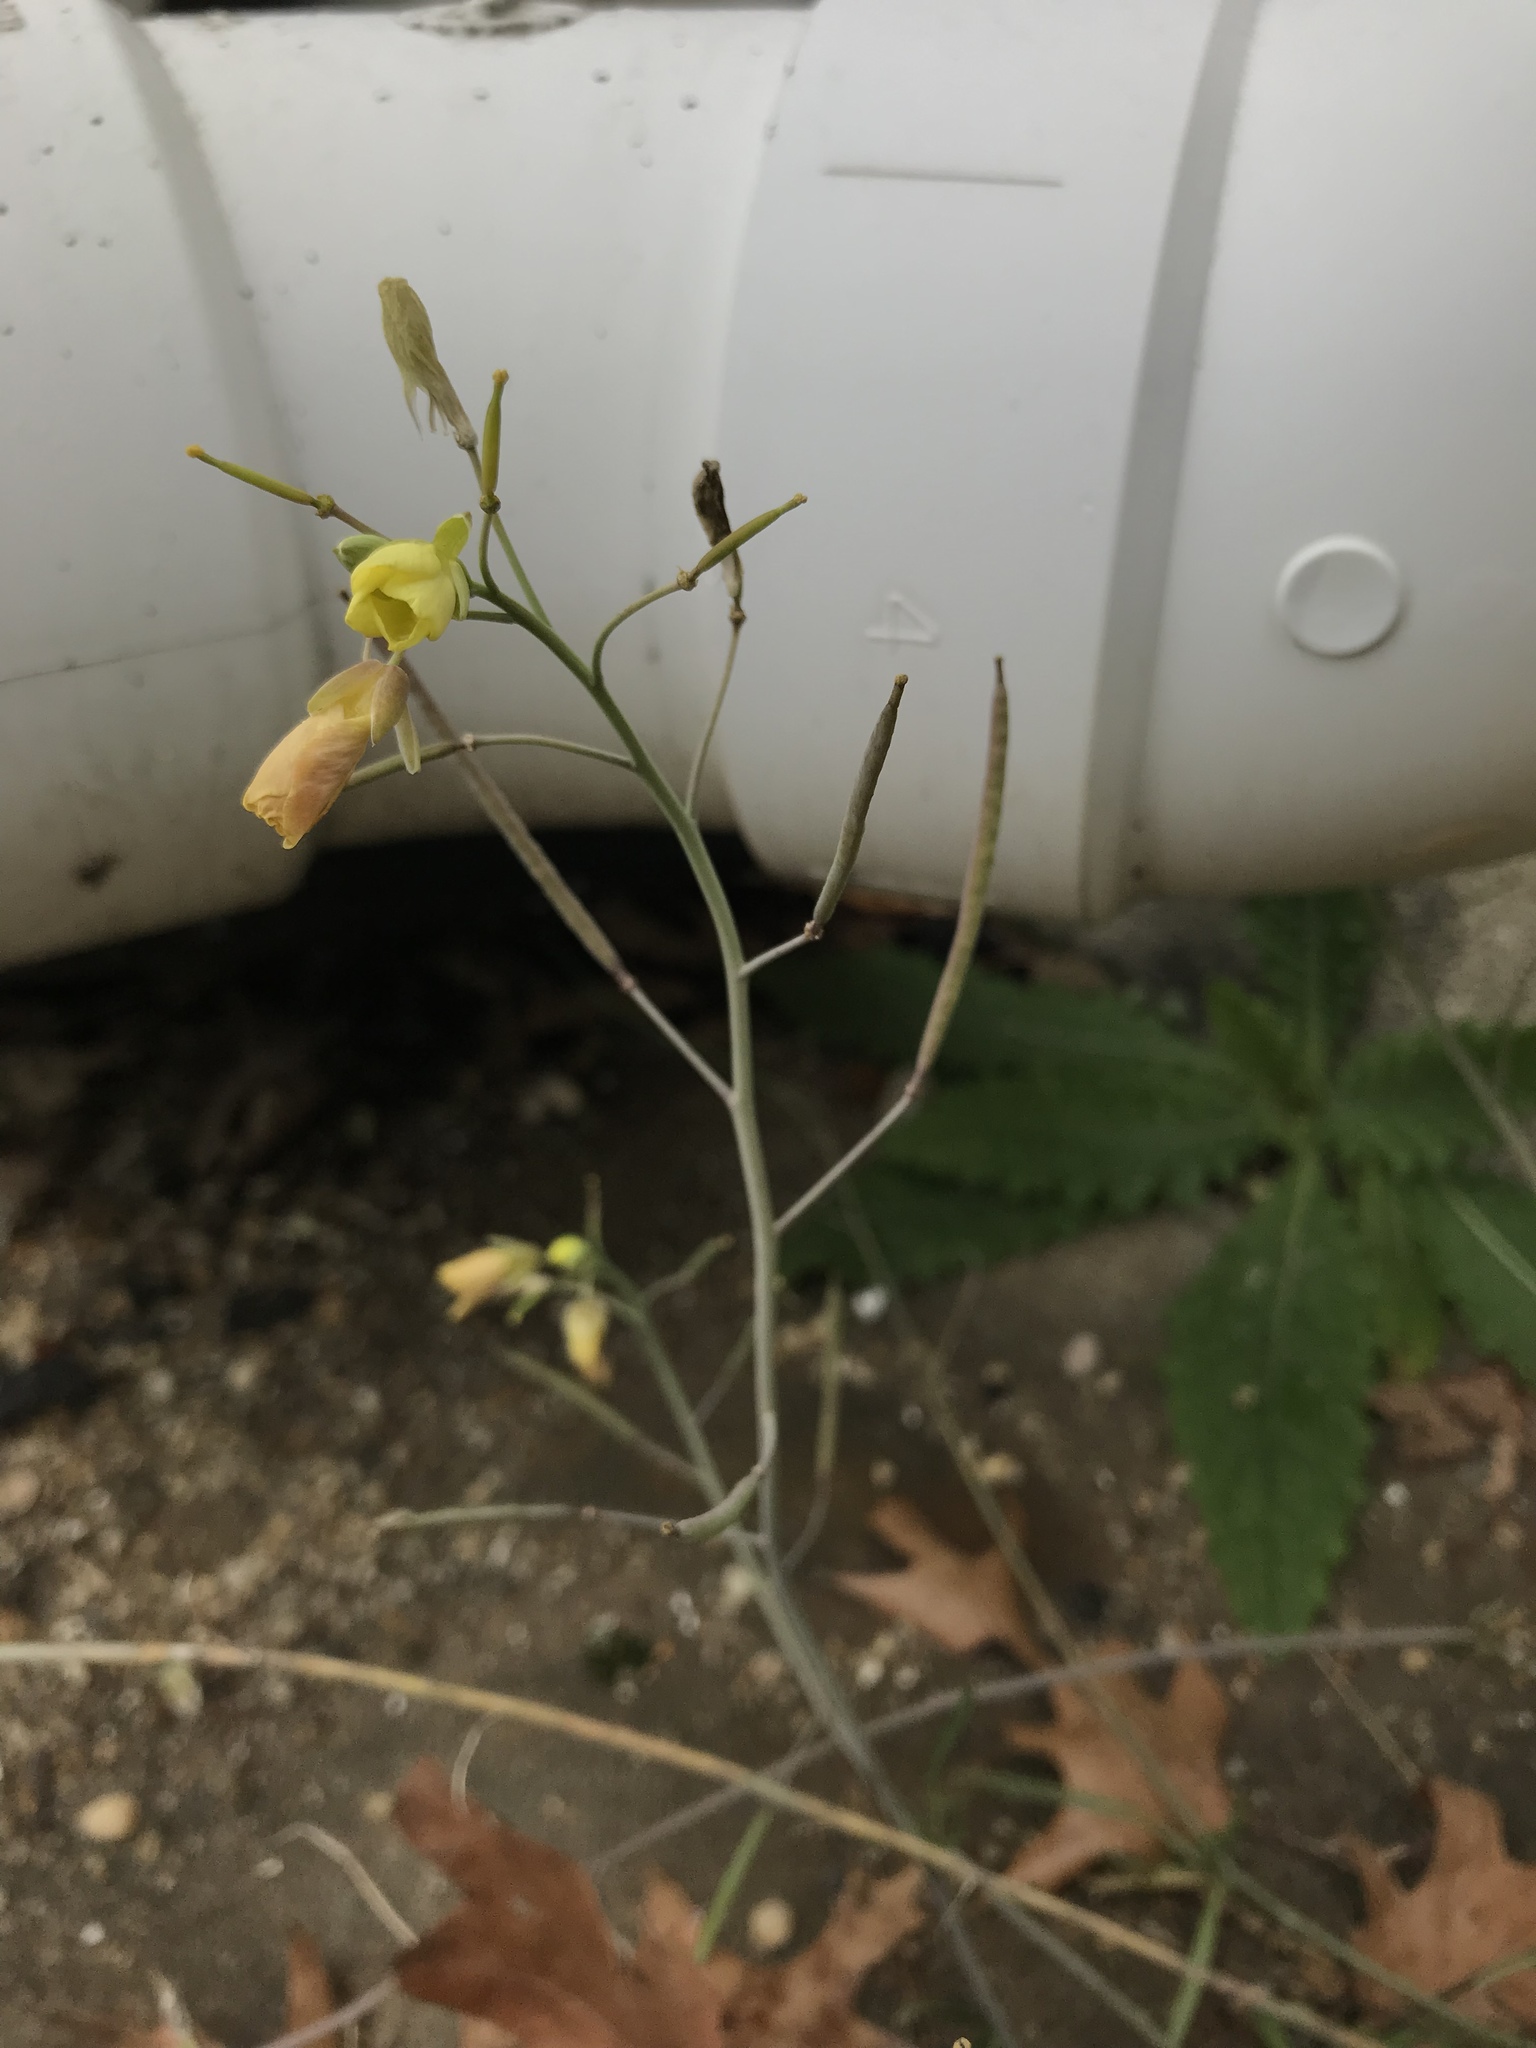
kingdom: Plantae
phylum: Tracheophyta
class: Magnoliopsida
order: Brassicales
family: Brassicaceae
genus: Diplotaxis
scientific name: Diplotaxis tenuifolia
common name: Perennial wall-rocket
